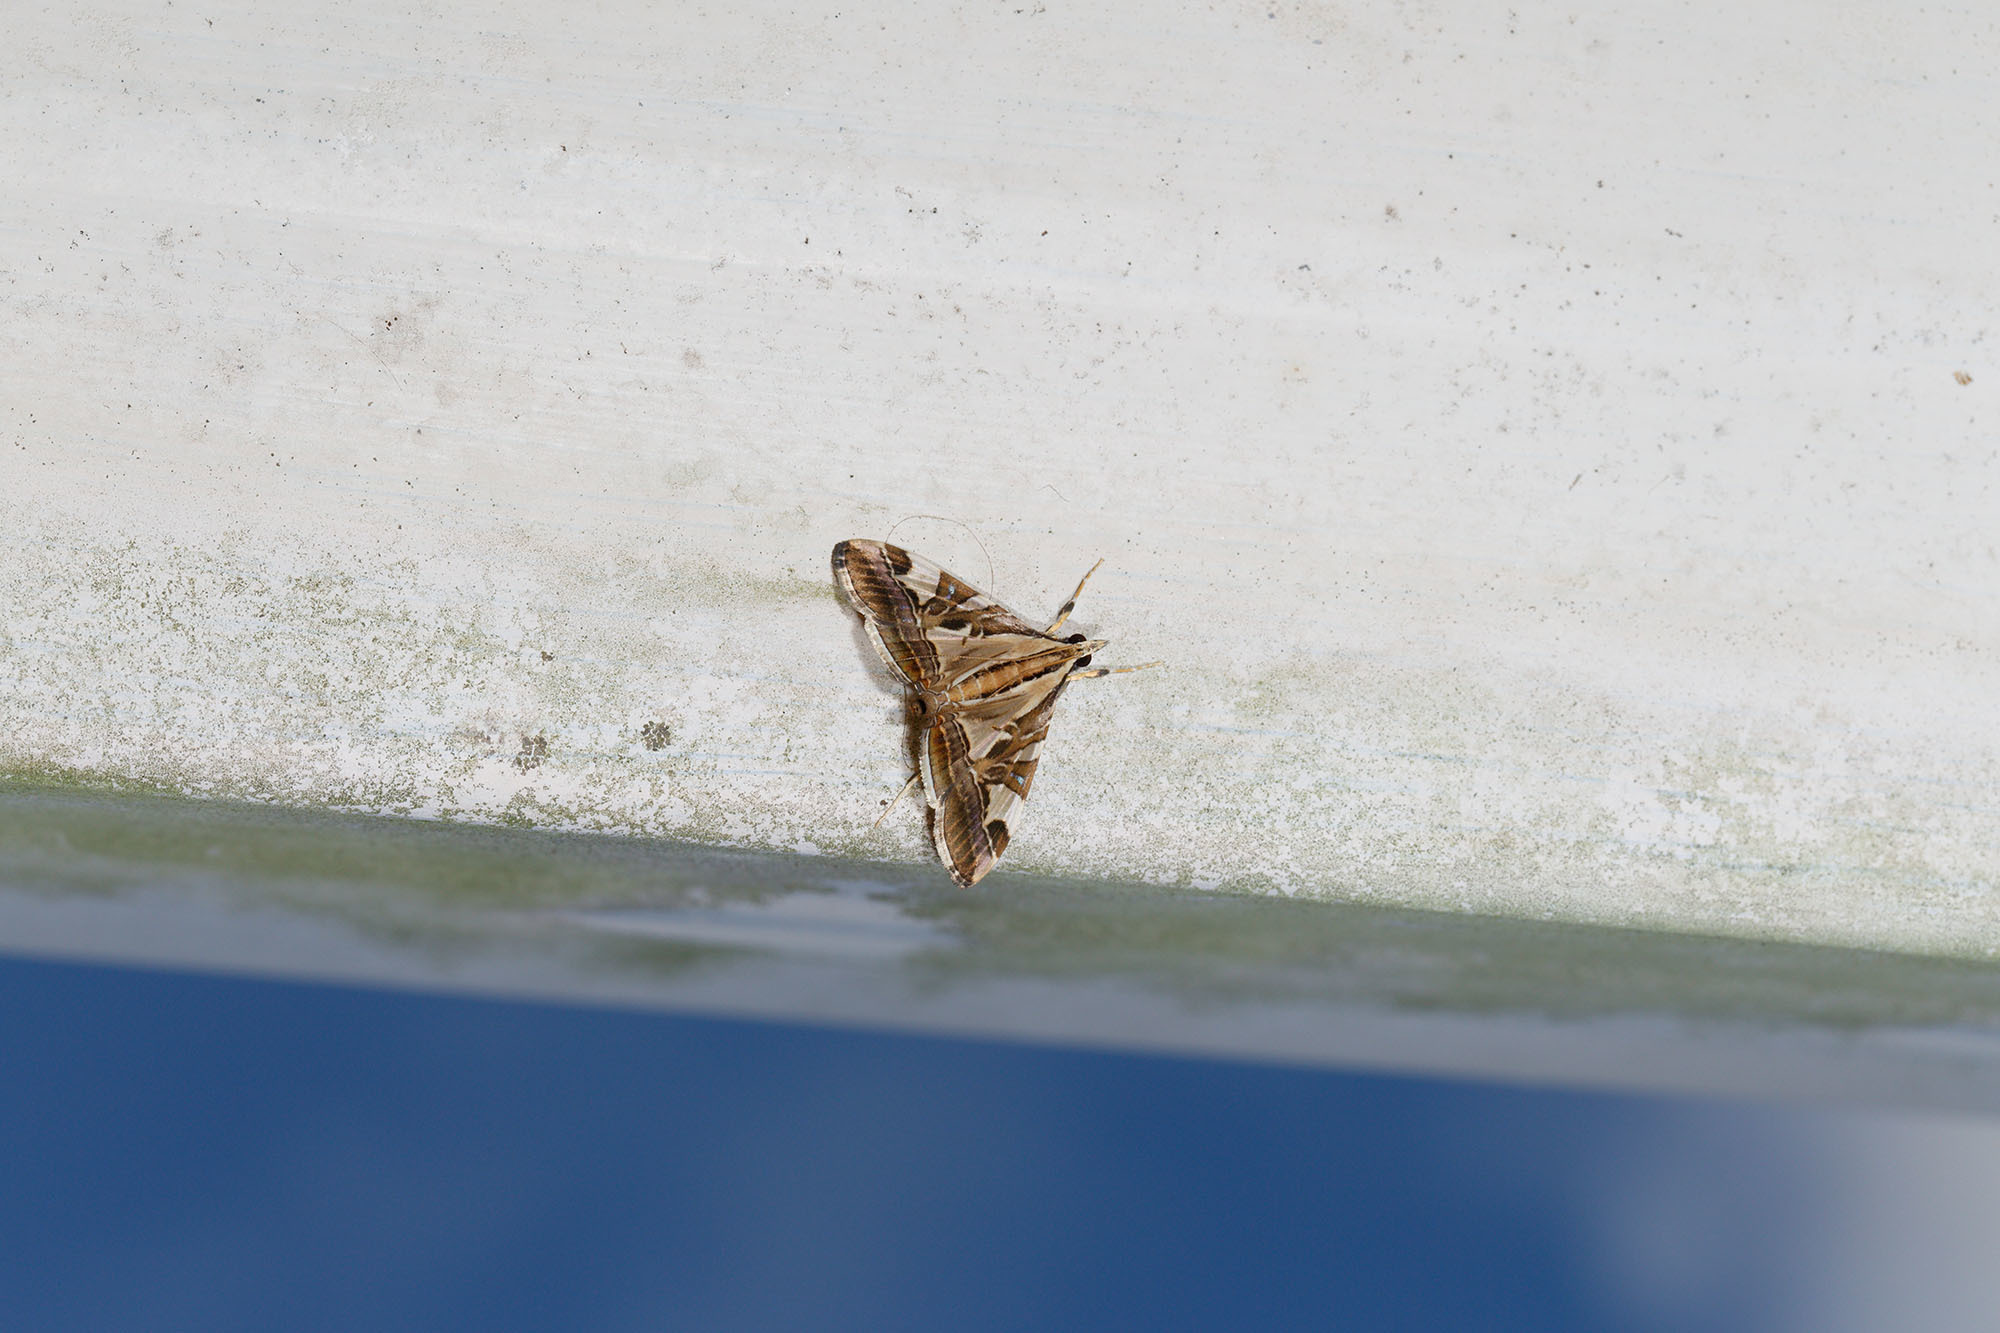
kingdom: Animalia
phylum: Arthropoda
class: Insecta
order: Lepidoptera
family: Crambidae
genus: Agrioglypta
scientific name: Agrioglypta itysalis
